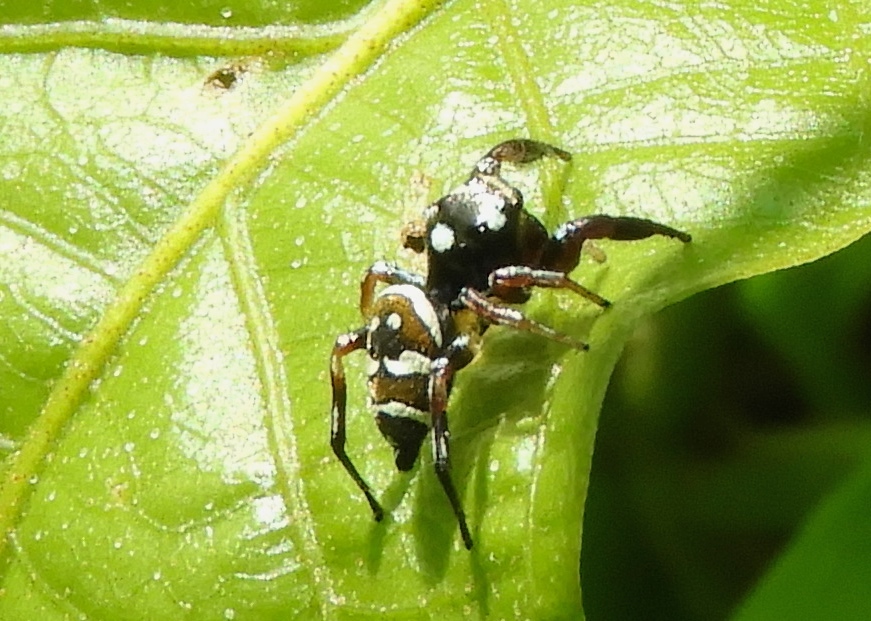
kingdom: Animalia
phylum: Arthropoda
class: Arachnida
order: Araneae
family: Salticidae
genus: Sassacus
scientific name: Sassacus
